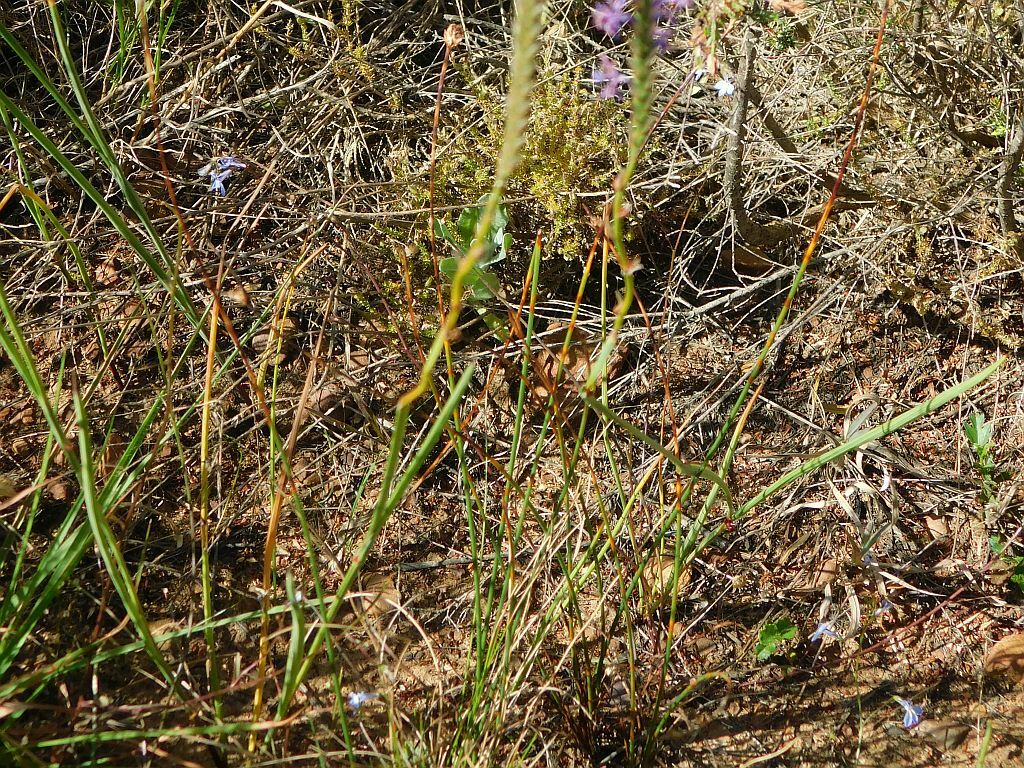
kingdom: Plantae
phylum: Tracheophyta
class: Liliopsida
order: Asparagales
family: Iridaceae
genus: Micranthus
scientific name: Micranthus tubulosus
